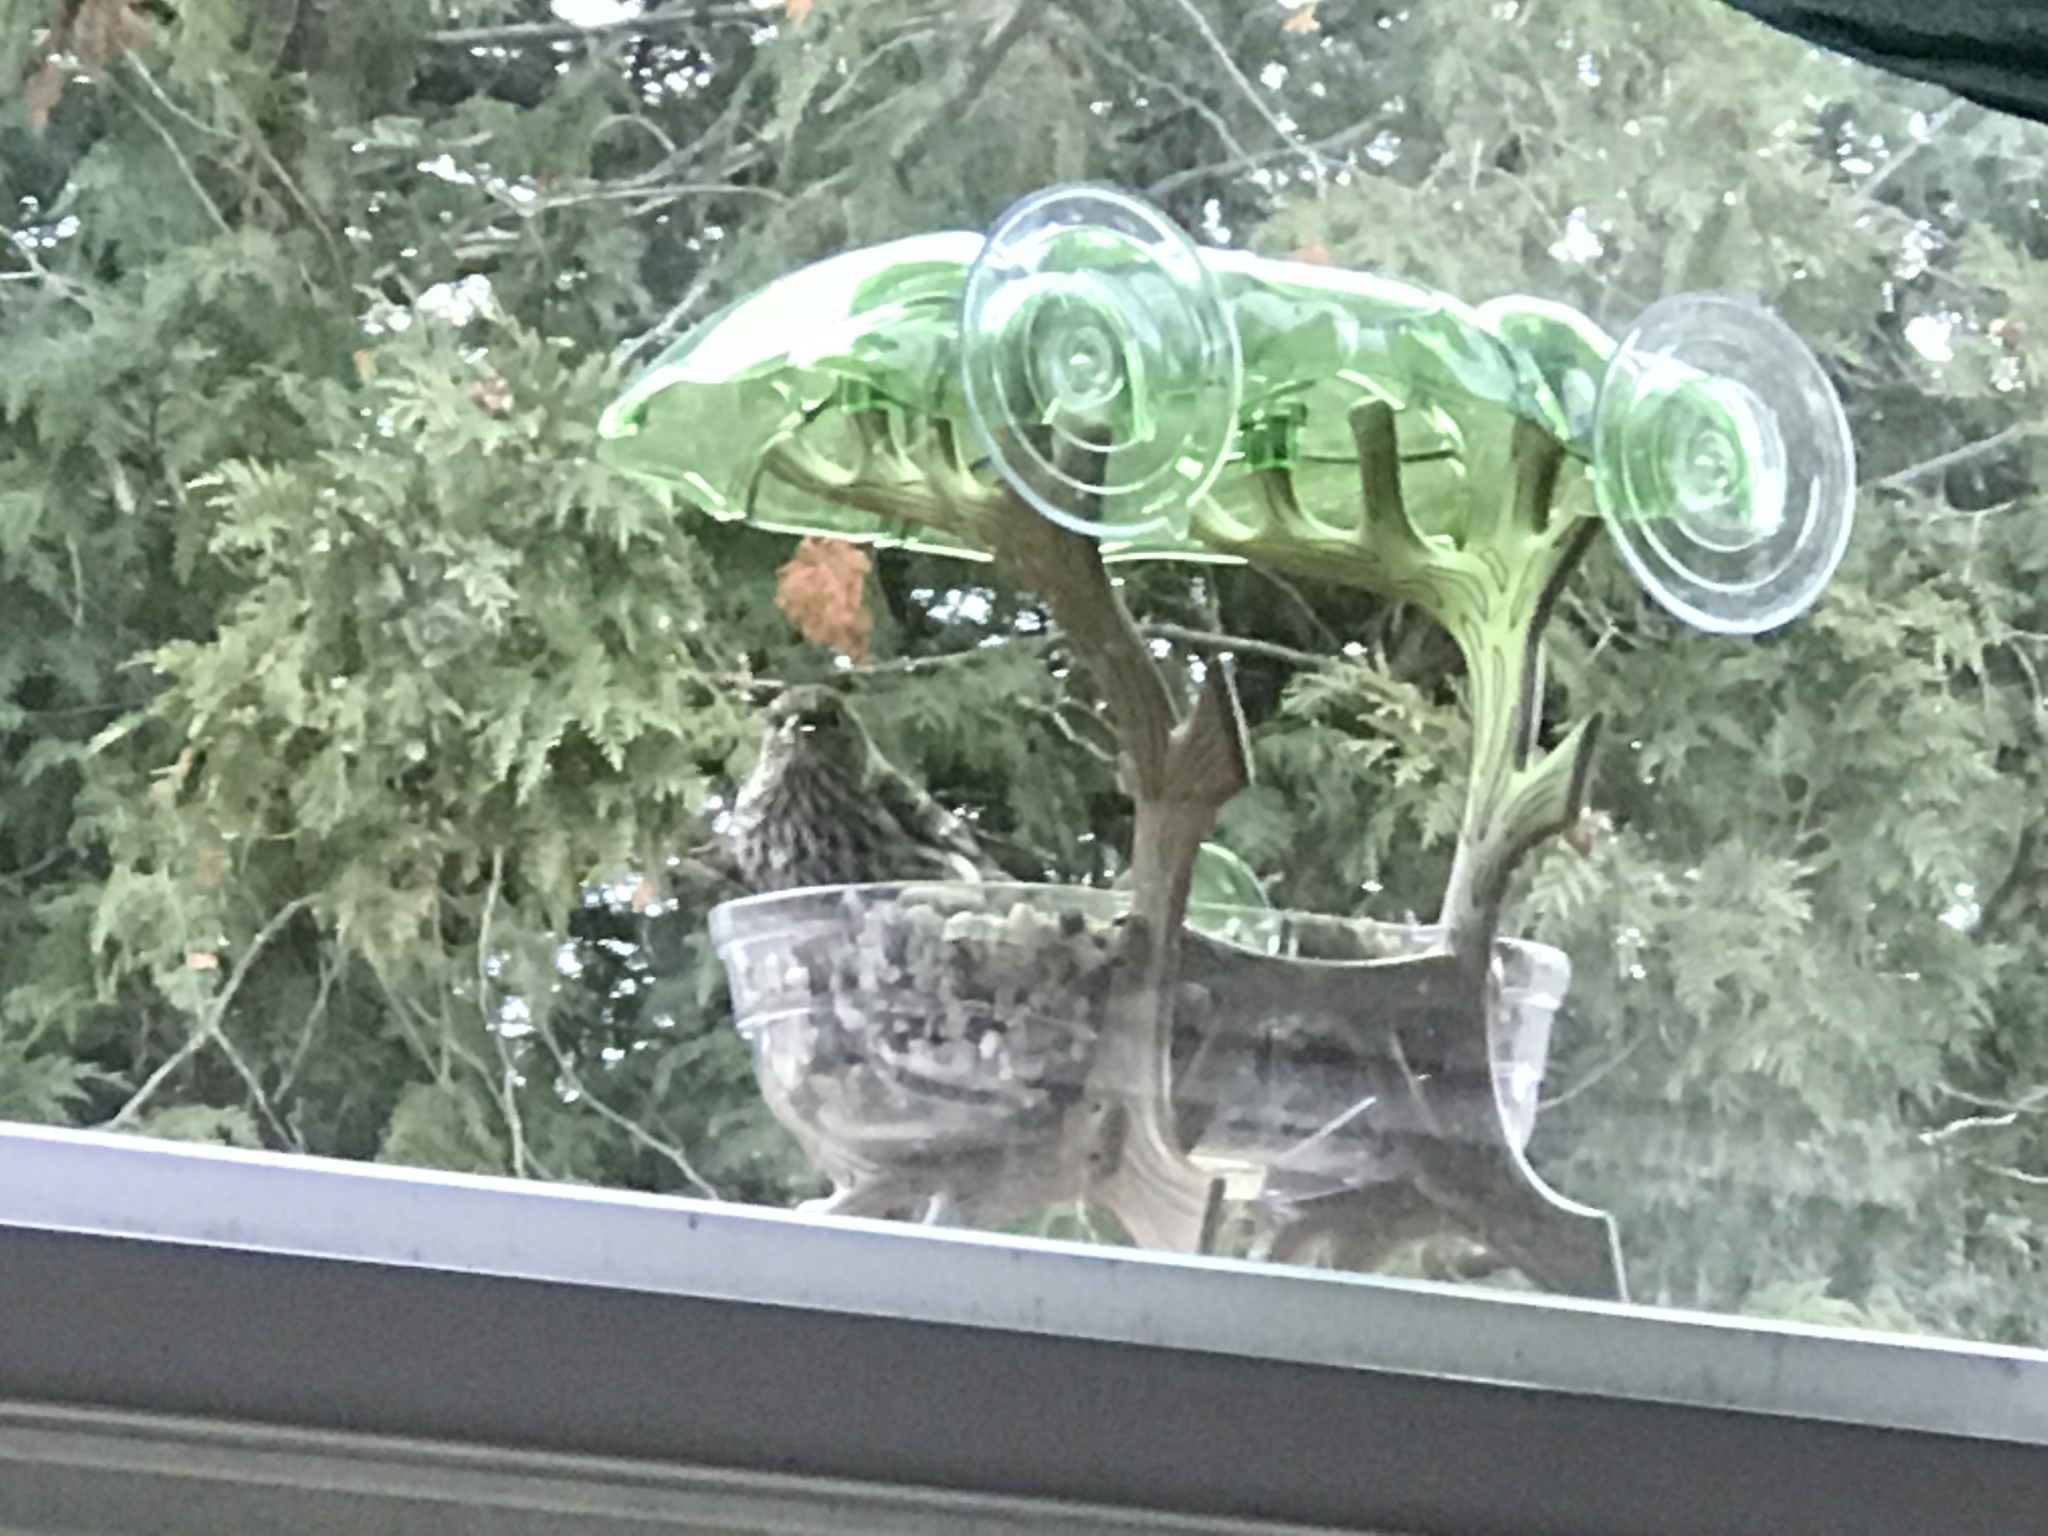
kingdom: Animalia
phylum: Chordata
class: Aves
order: Passeriformes
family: Fringillidae
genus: Spinus
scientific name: Spinus pinus
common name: Pine siskin
